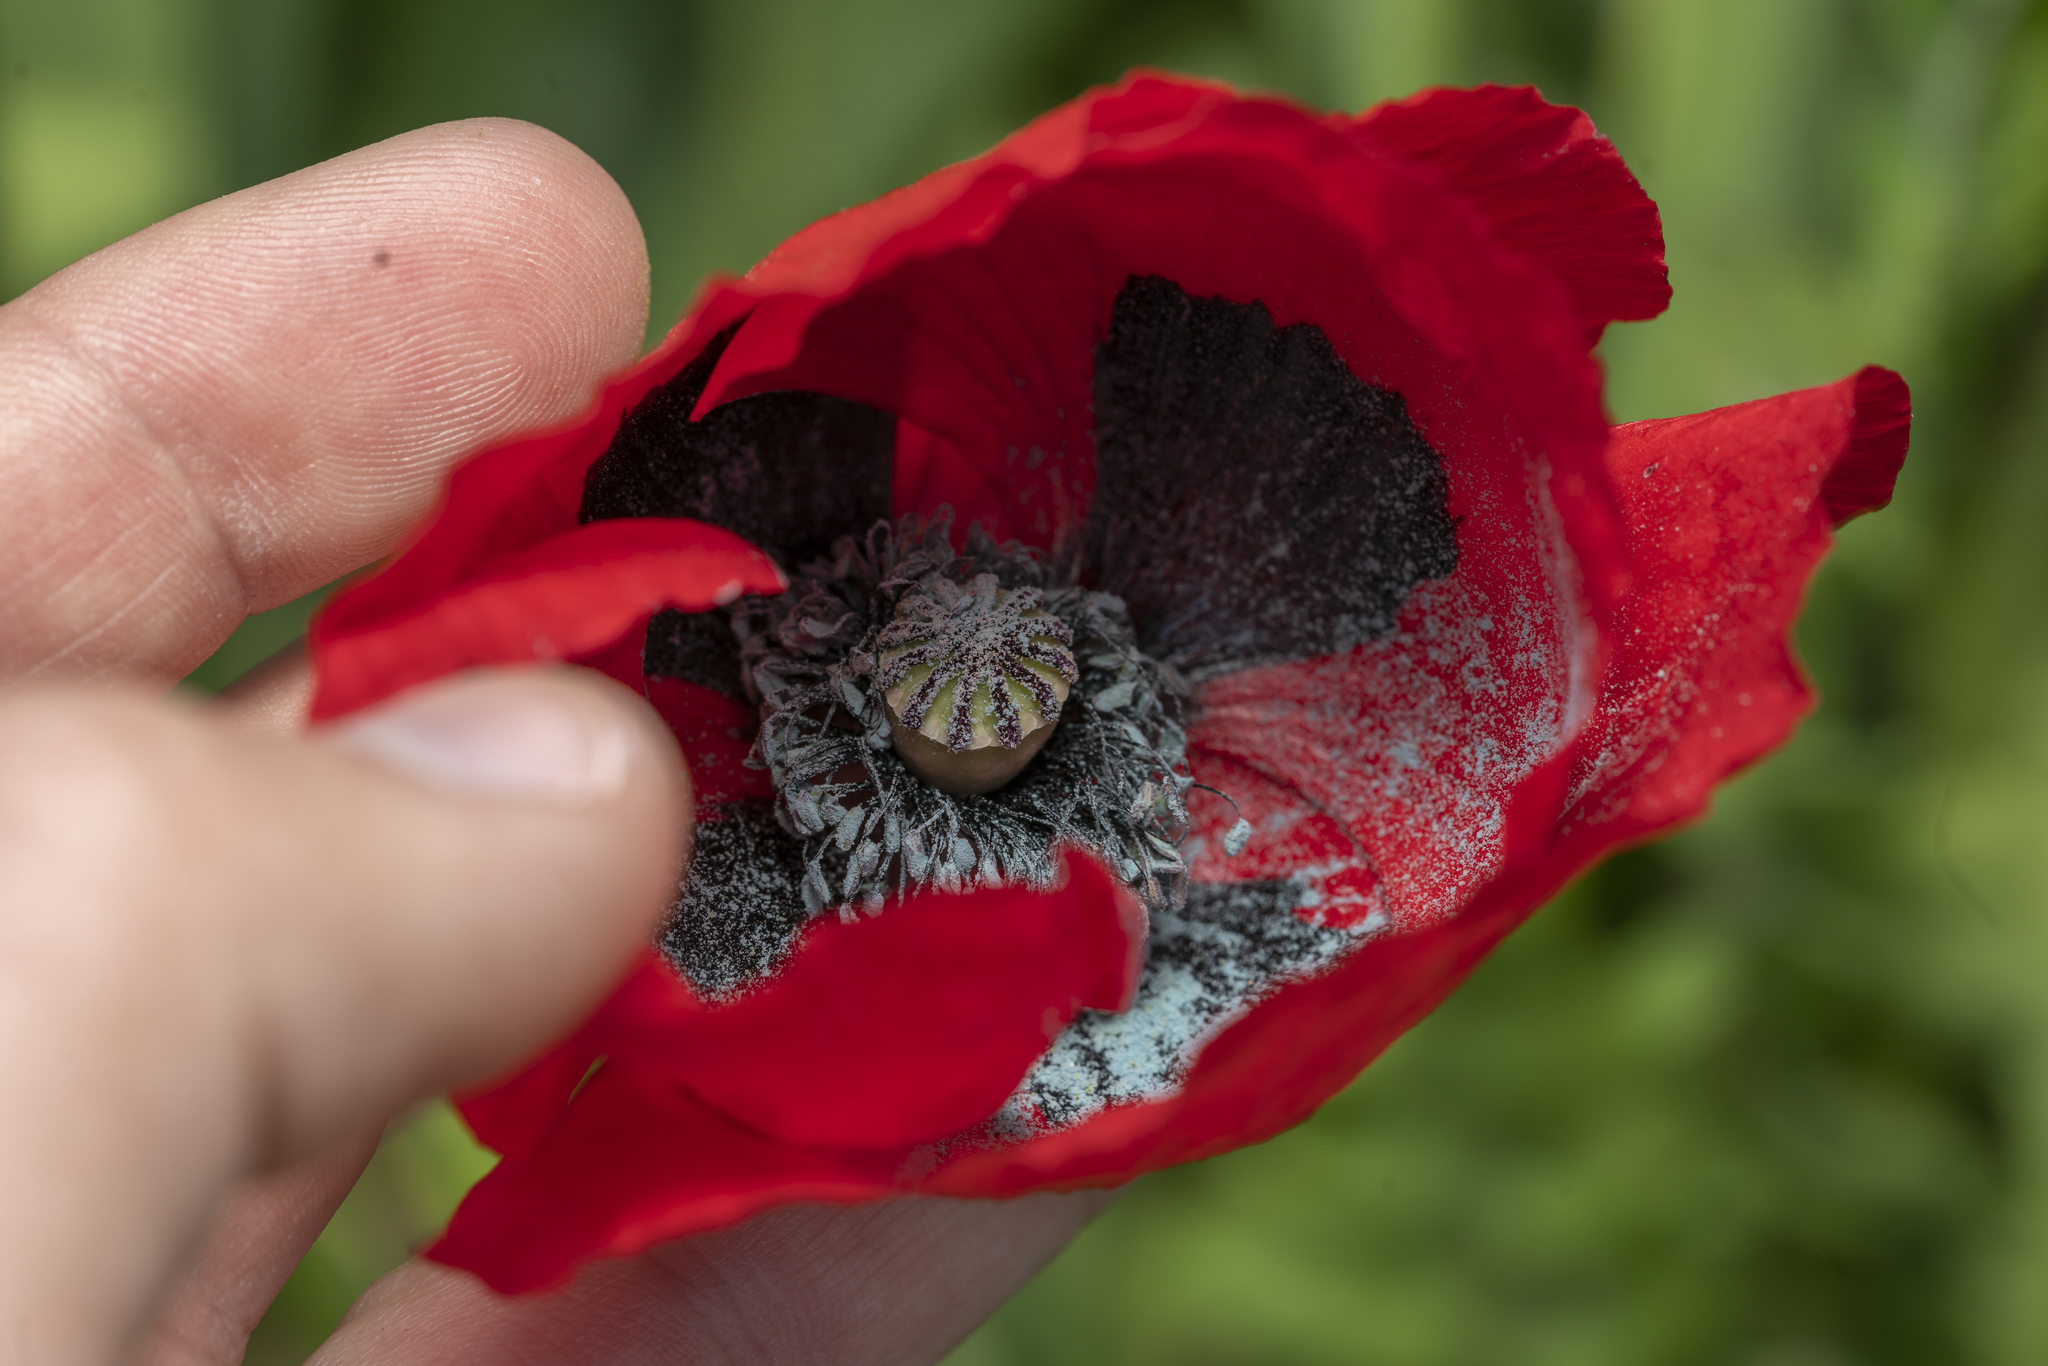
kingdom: Plantae
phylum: Tracheophyta
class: Magnoliopsida
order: Ranunculales
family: Papaveraceae
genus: Papaver
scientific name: Papaver rhoeas
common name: Corn poppy
